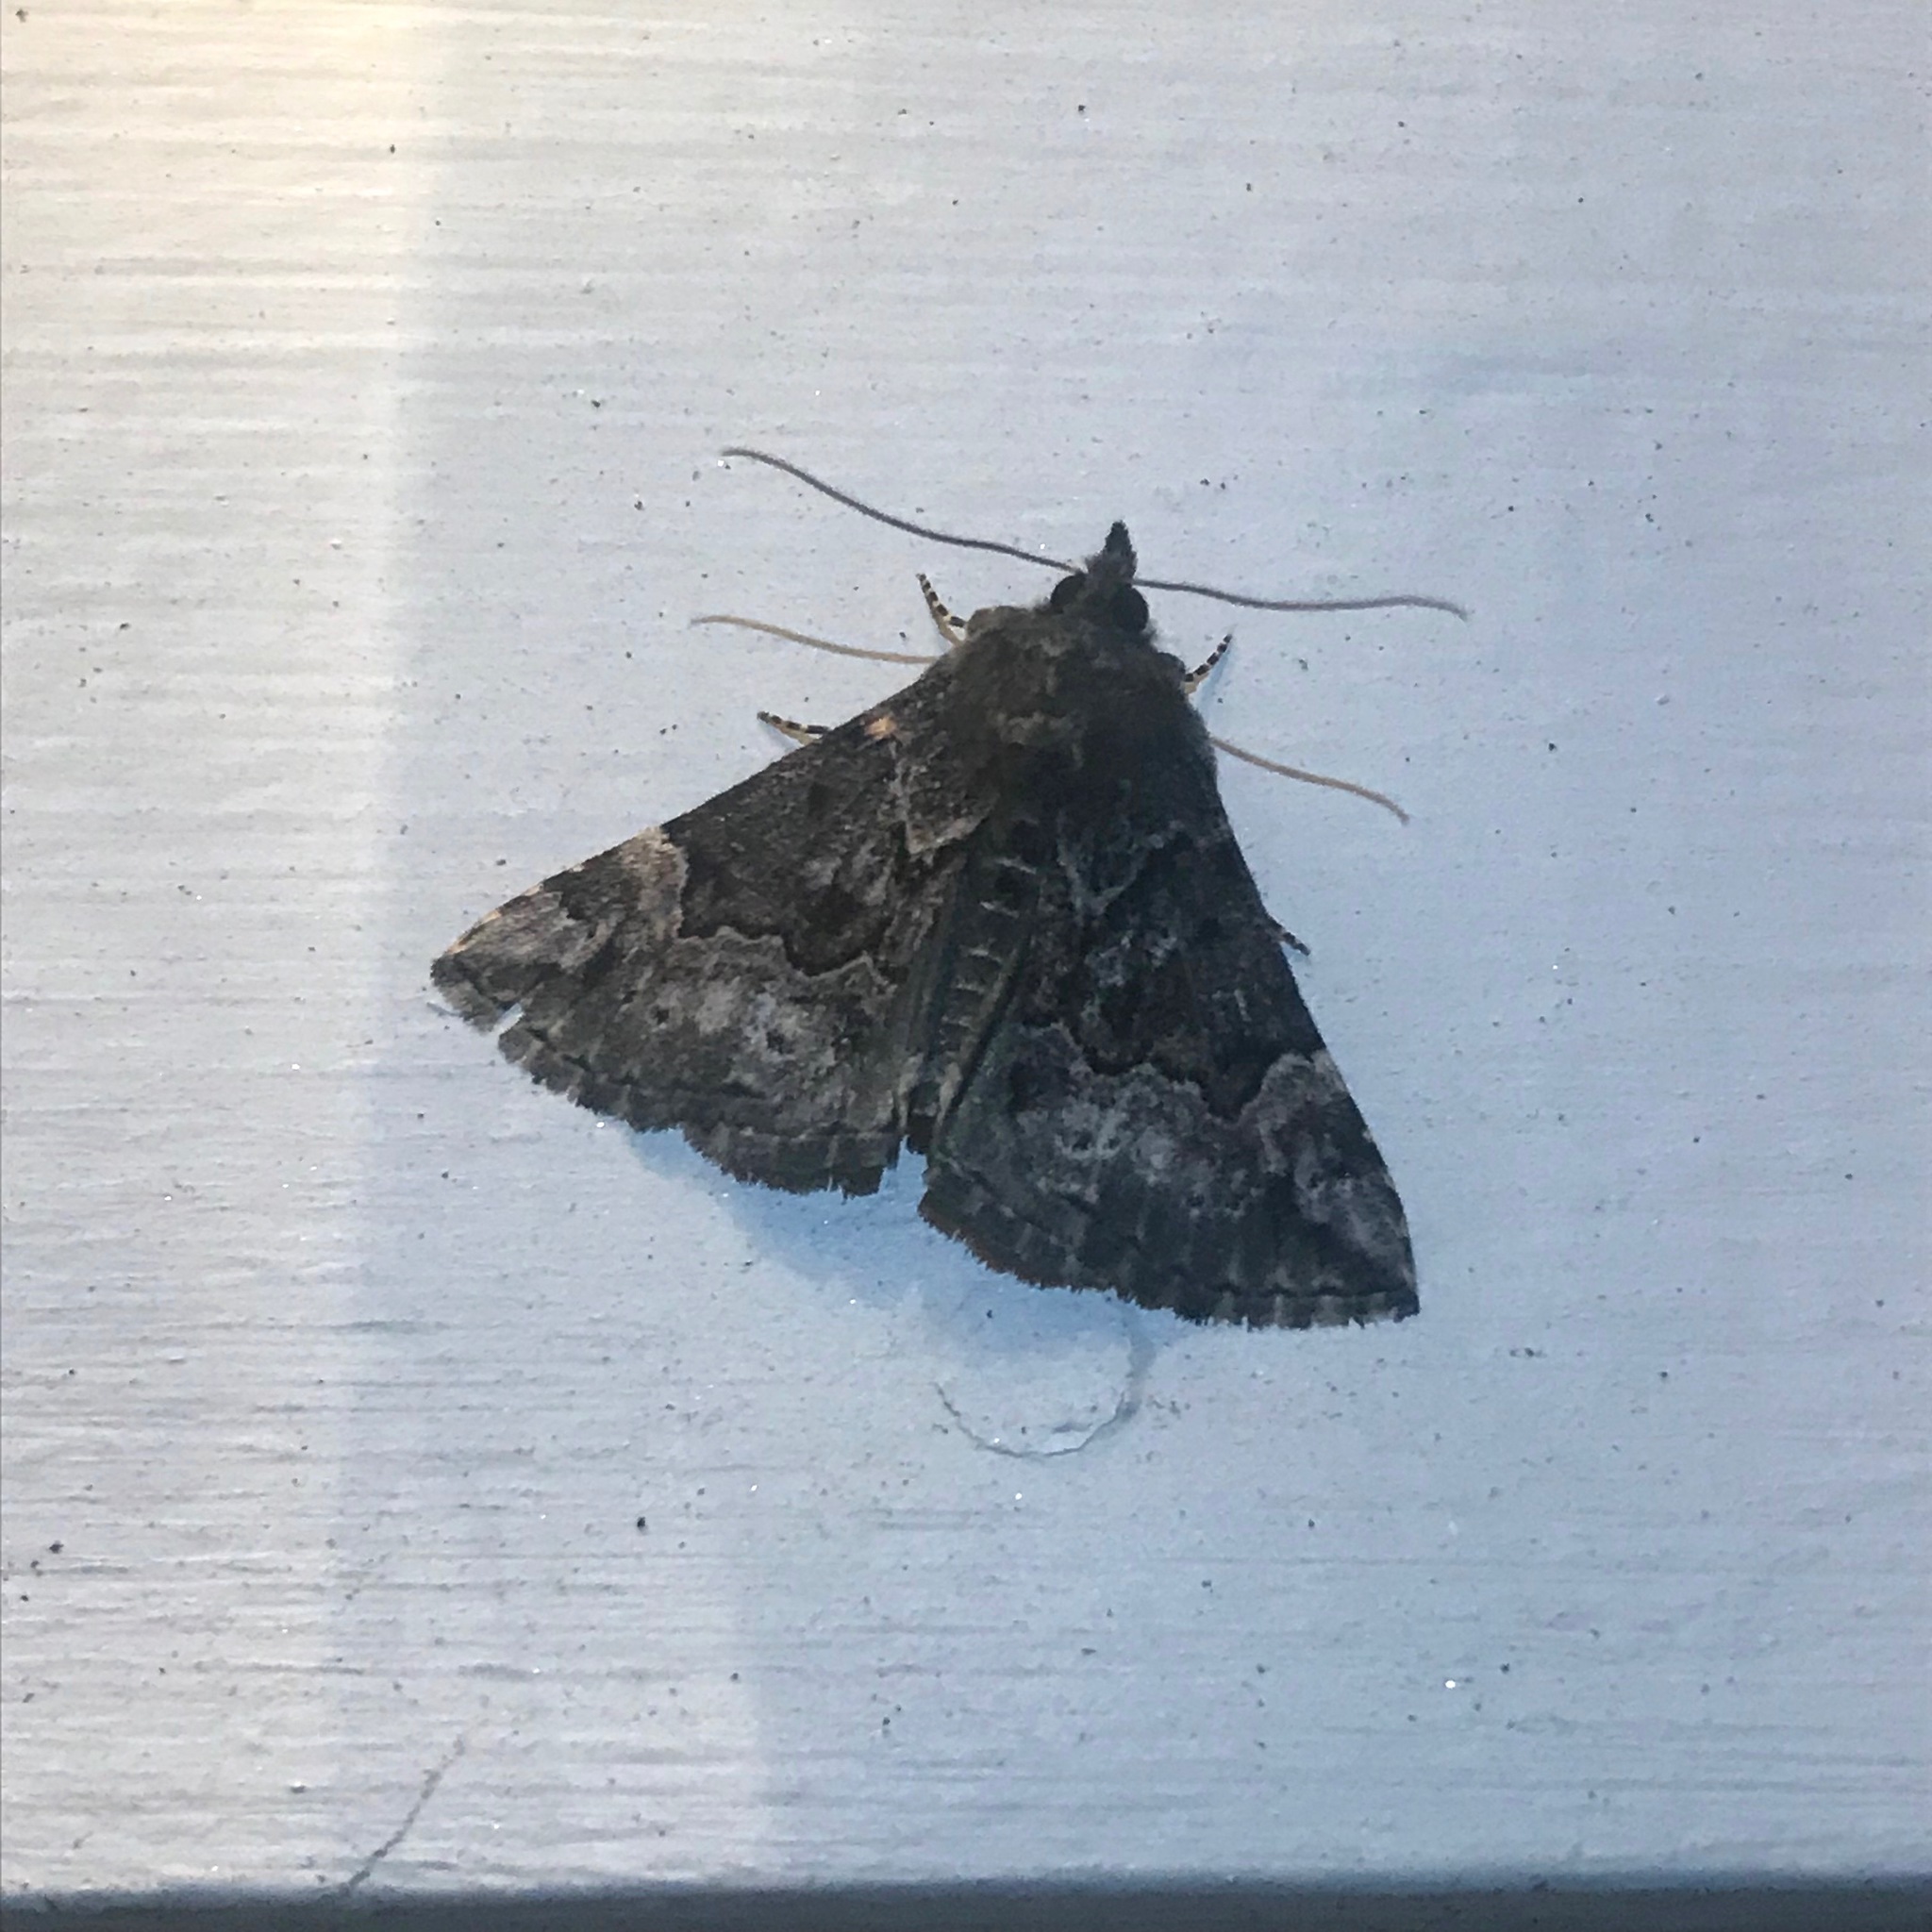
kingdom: Animalia
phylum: Arthropoda
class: Insecta
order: Lepidoptera
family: Erebidae
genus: Hypena
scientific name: Hypena palparia
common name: Mottled bomolocha moth
